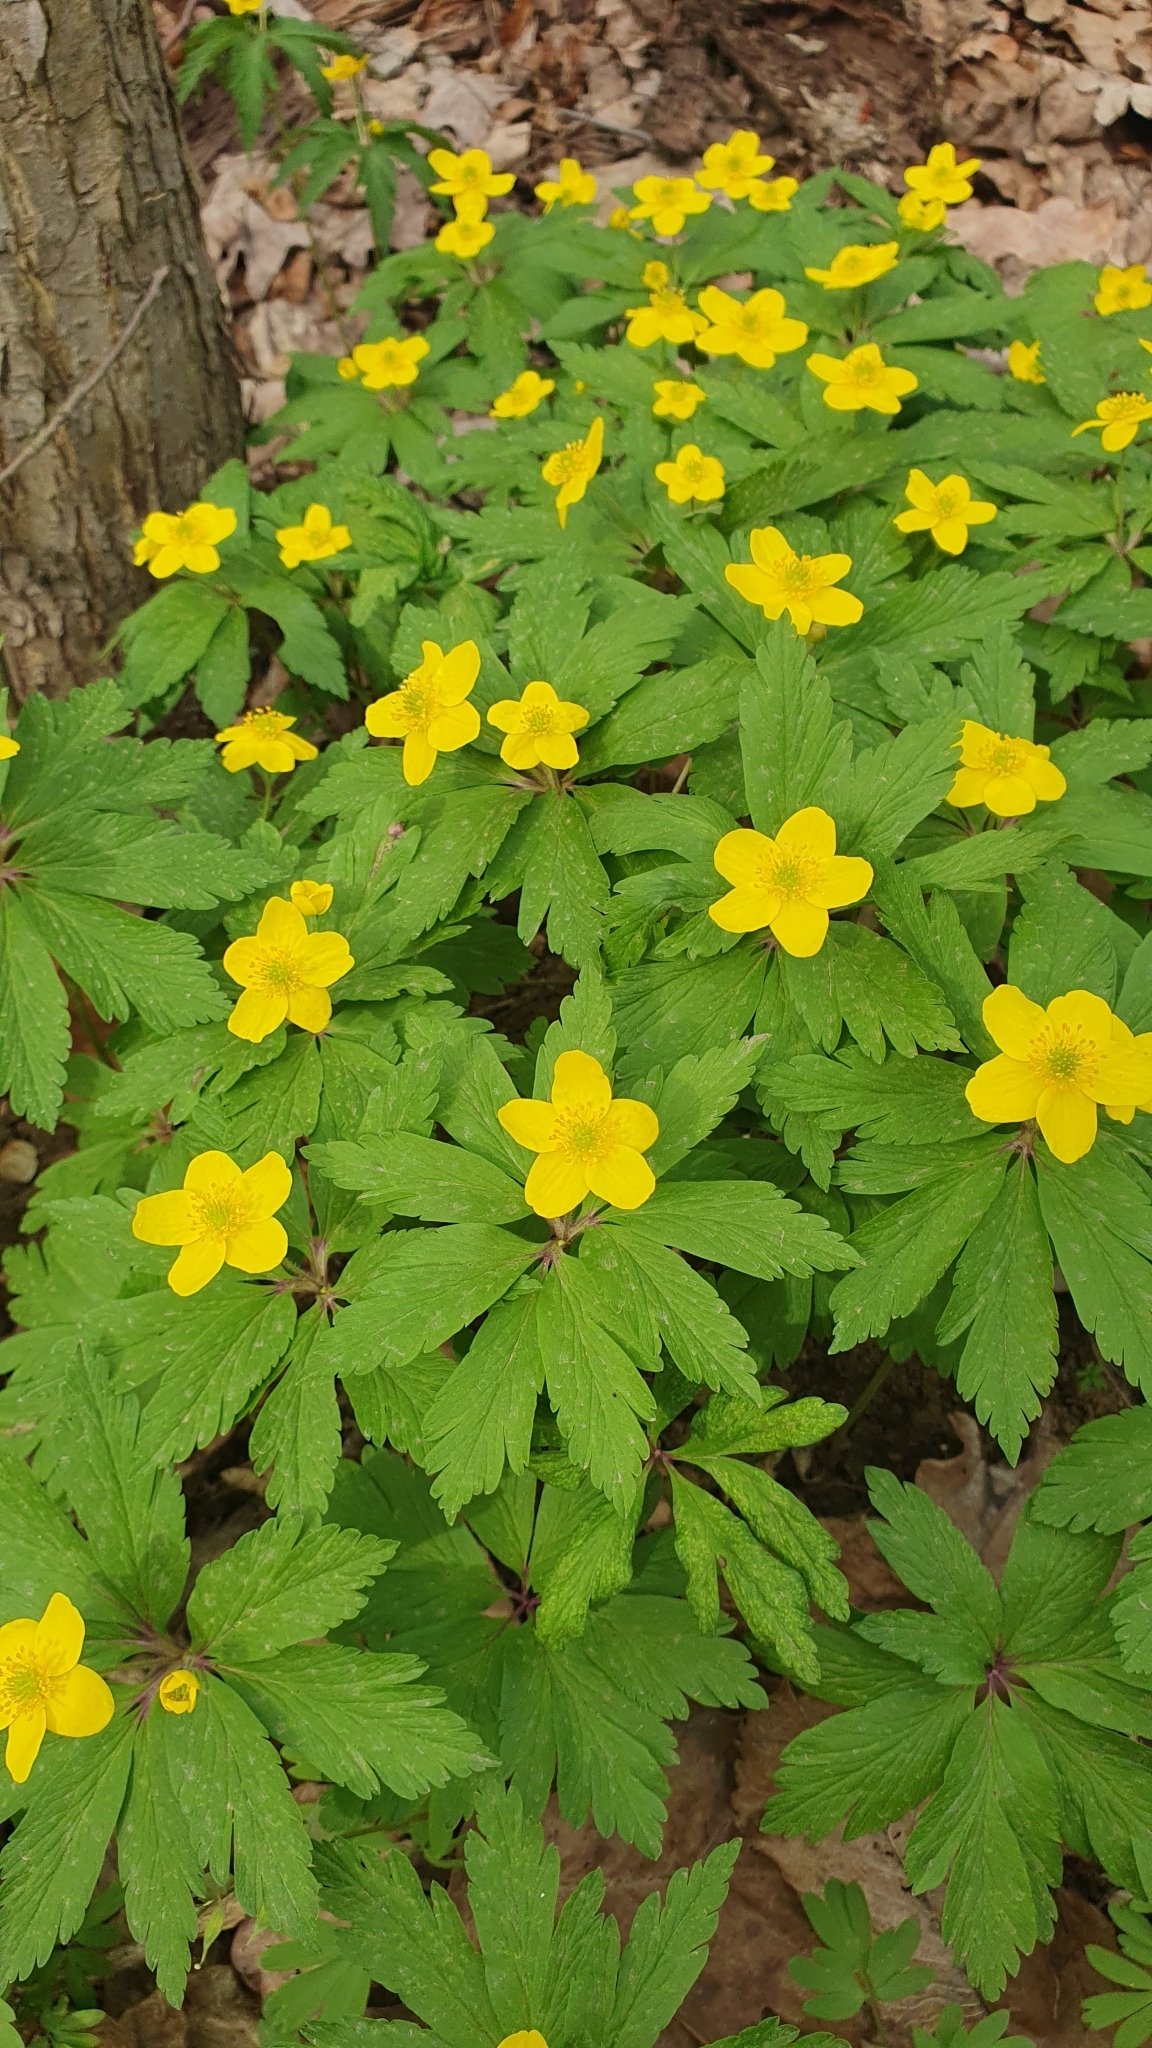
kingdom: Plantae
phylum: Tracheophyta
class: Magnoliopsida
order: Ranunculales
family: Ranunculaceae
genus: Anemone
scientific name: Anemone ranunculoides
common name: Yellow anemone
